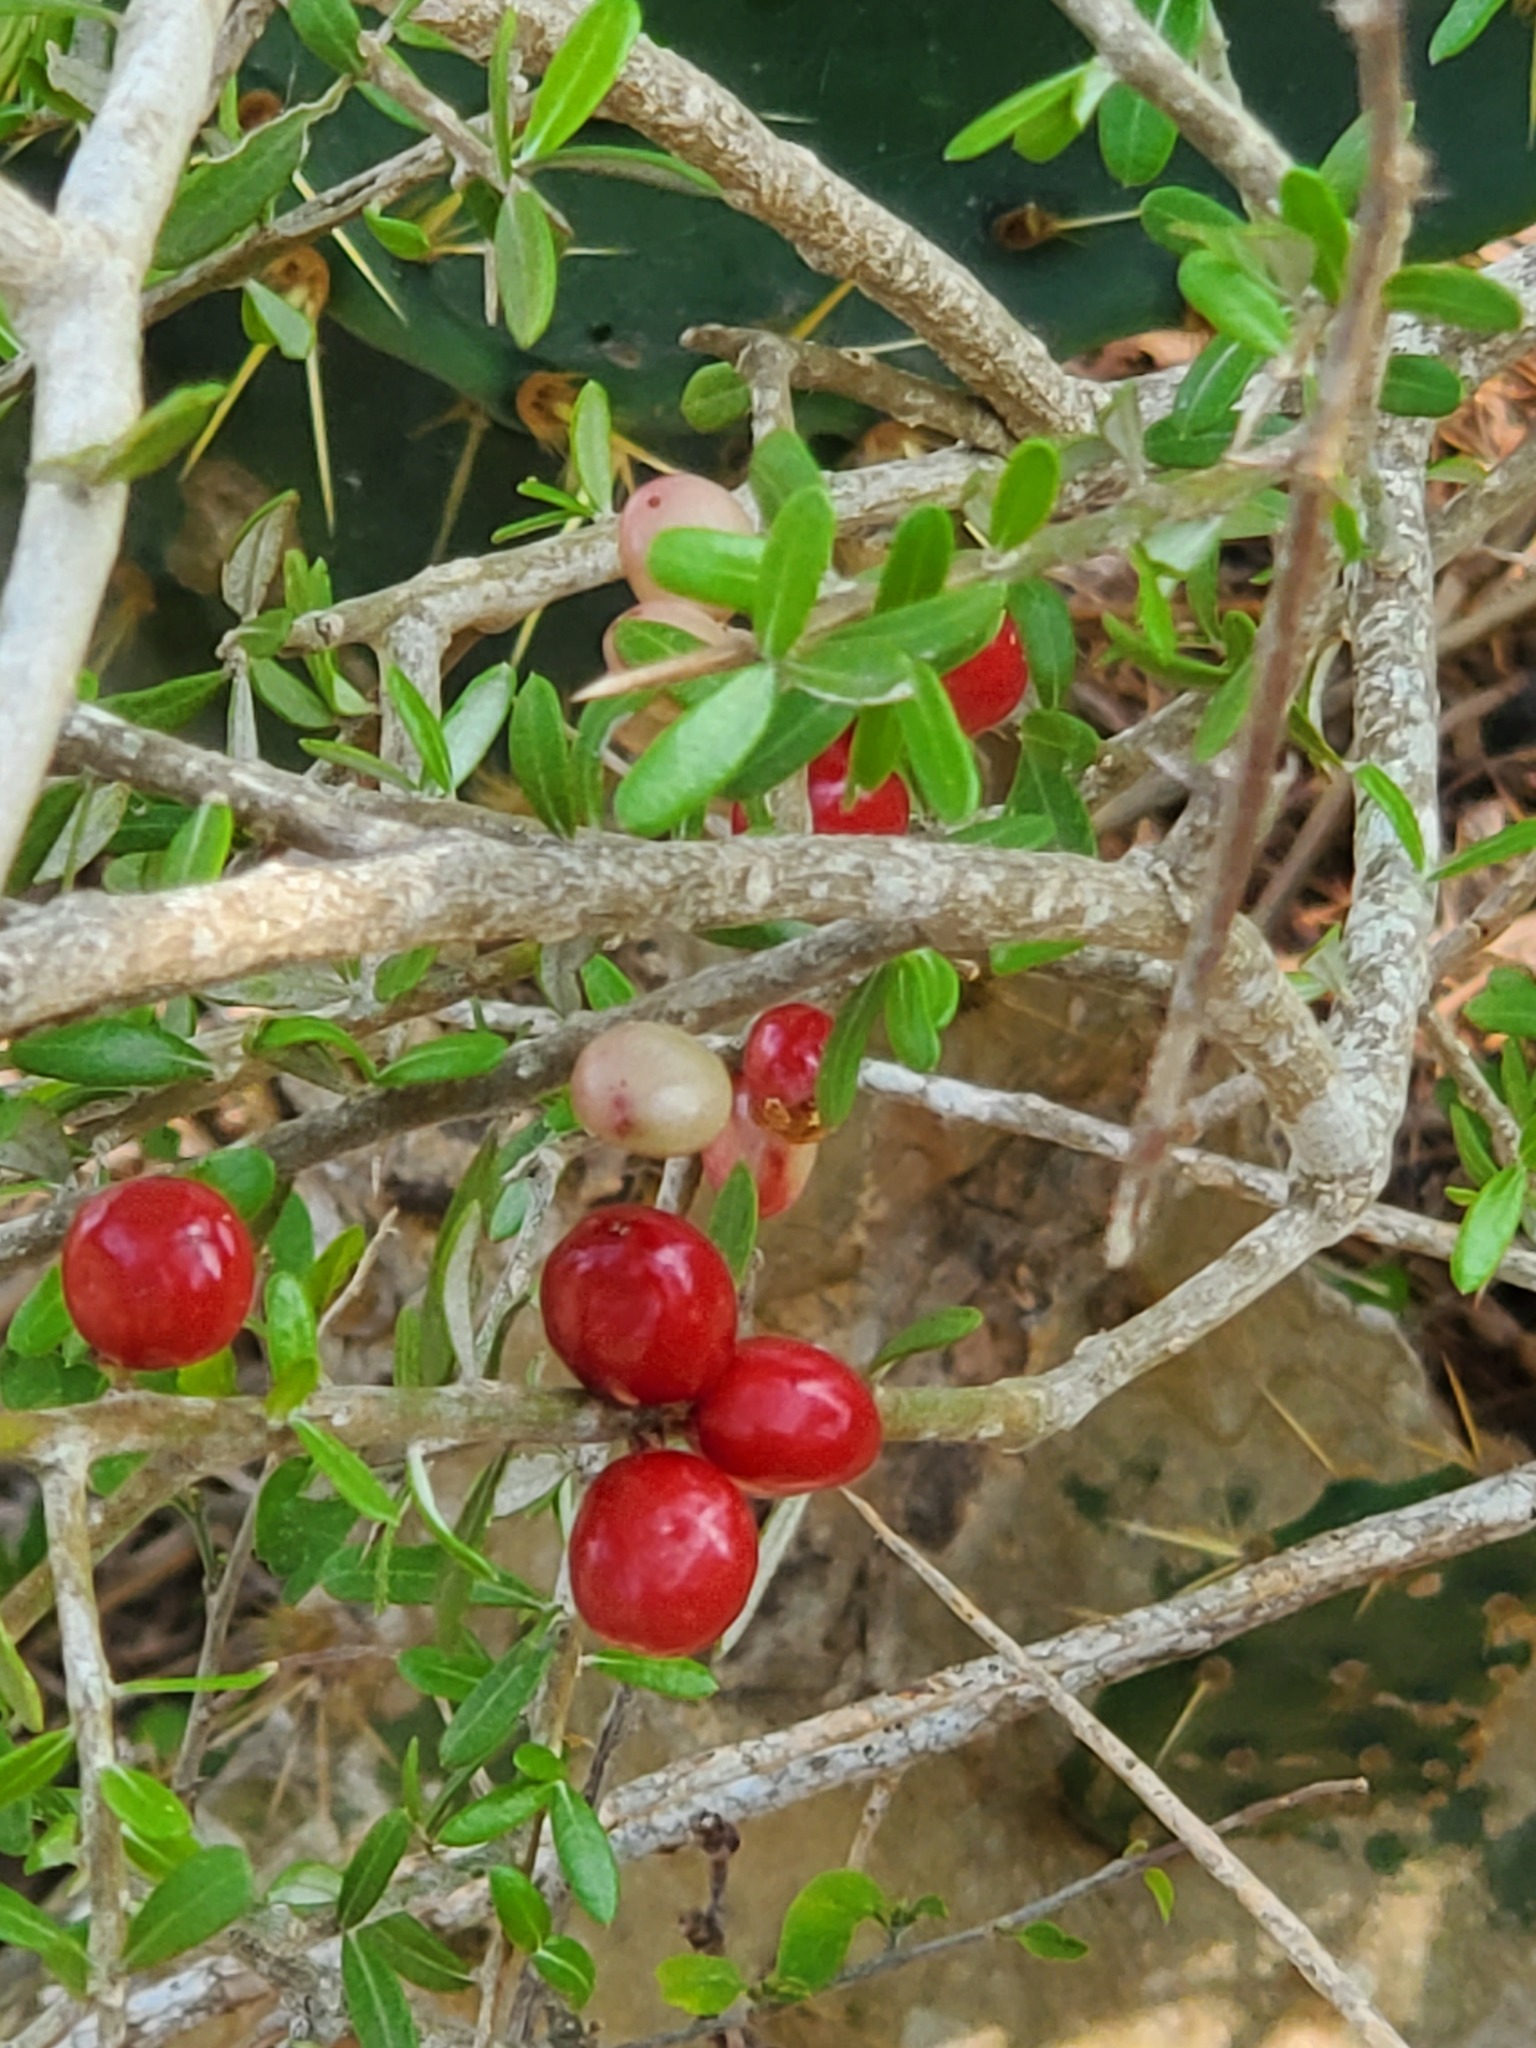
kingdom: Plantae
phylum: Tracheophyta
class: Magnoliopsida
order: Sapindales
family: Simaroubaceae
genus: Castela
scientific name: Castela erecta
